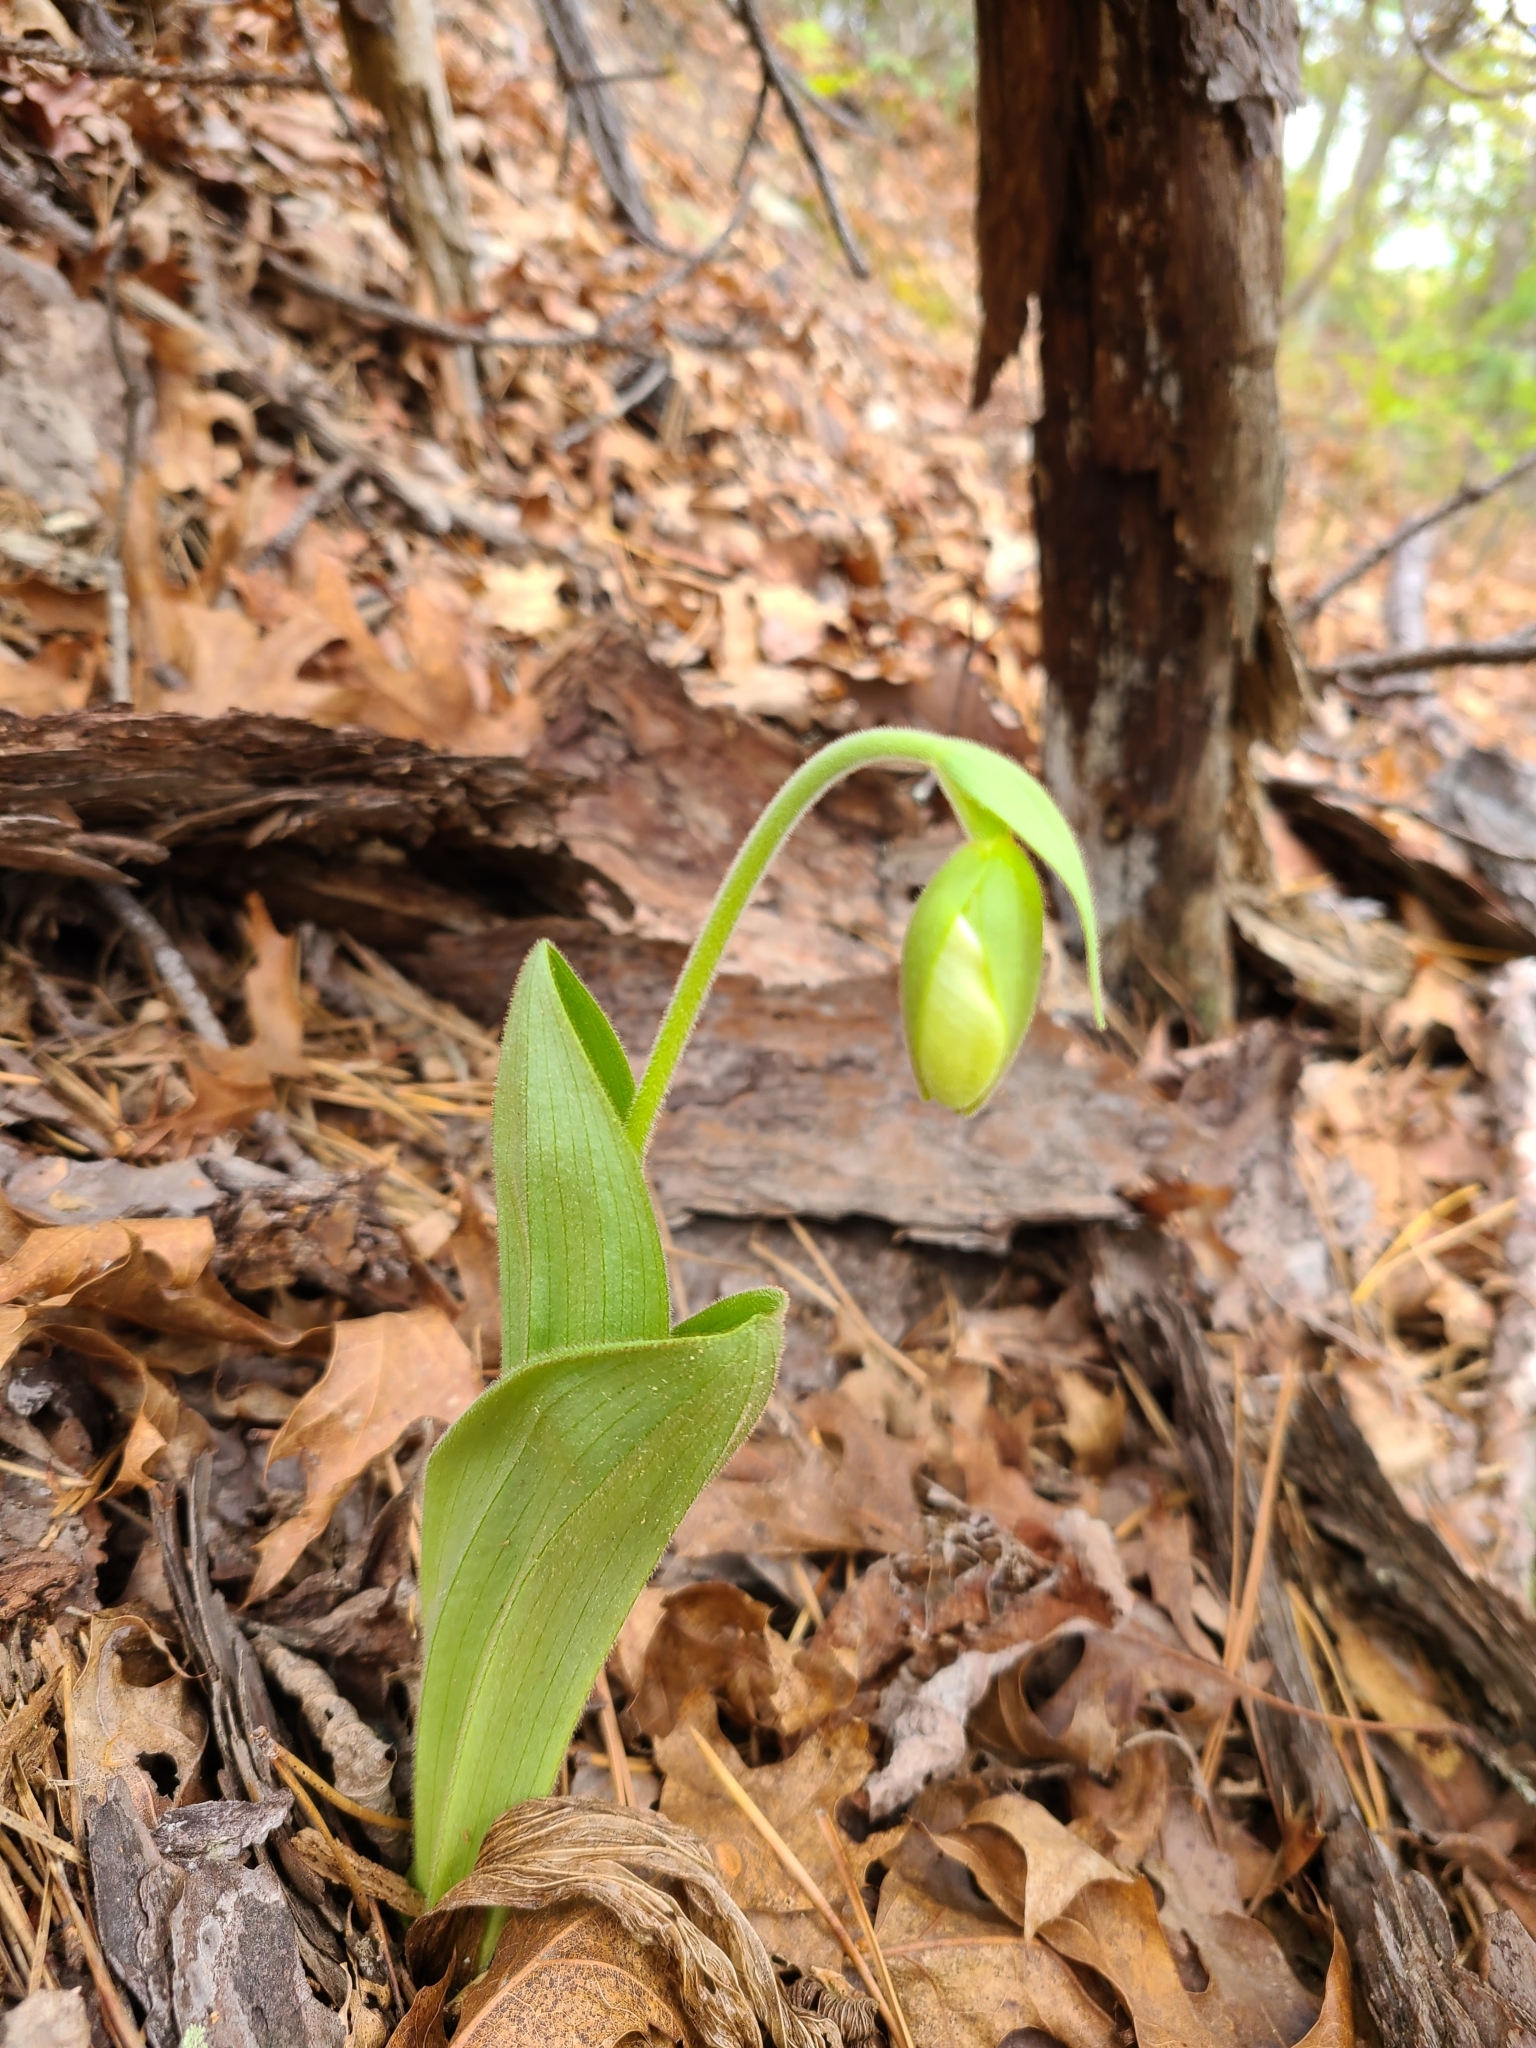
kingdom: Plantae
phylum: Tracheophyta
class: Liliopsida
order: Asparagales
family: Orchidaceae
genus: Cypripedium
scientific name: Cypripedium acaule
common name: Pink lady's-slipper
